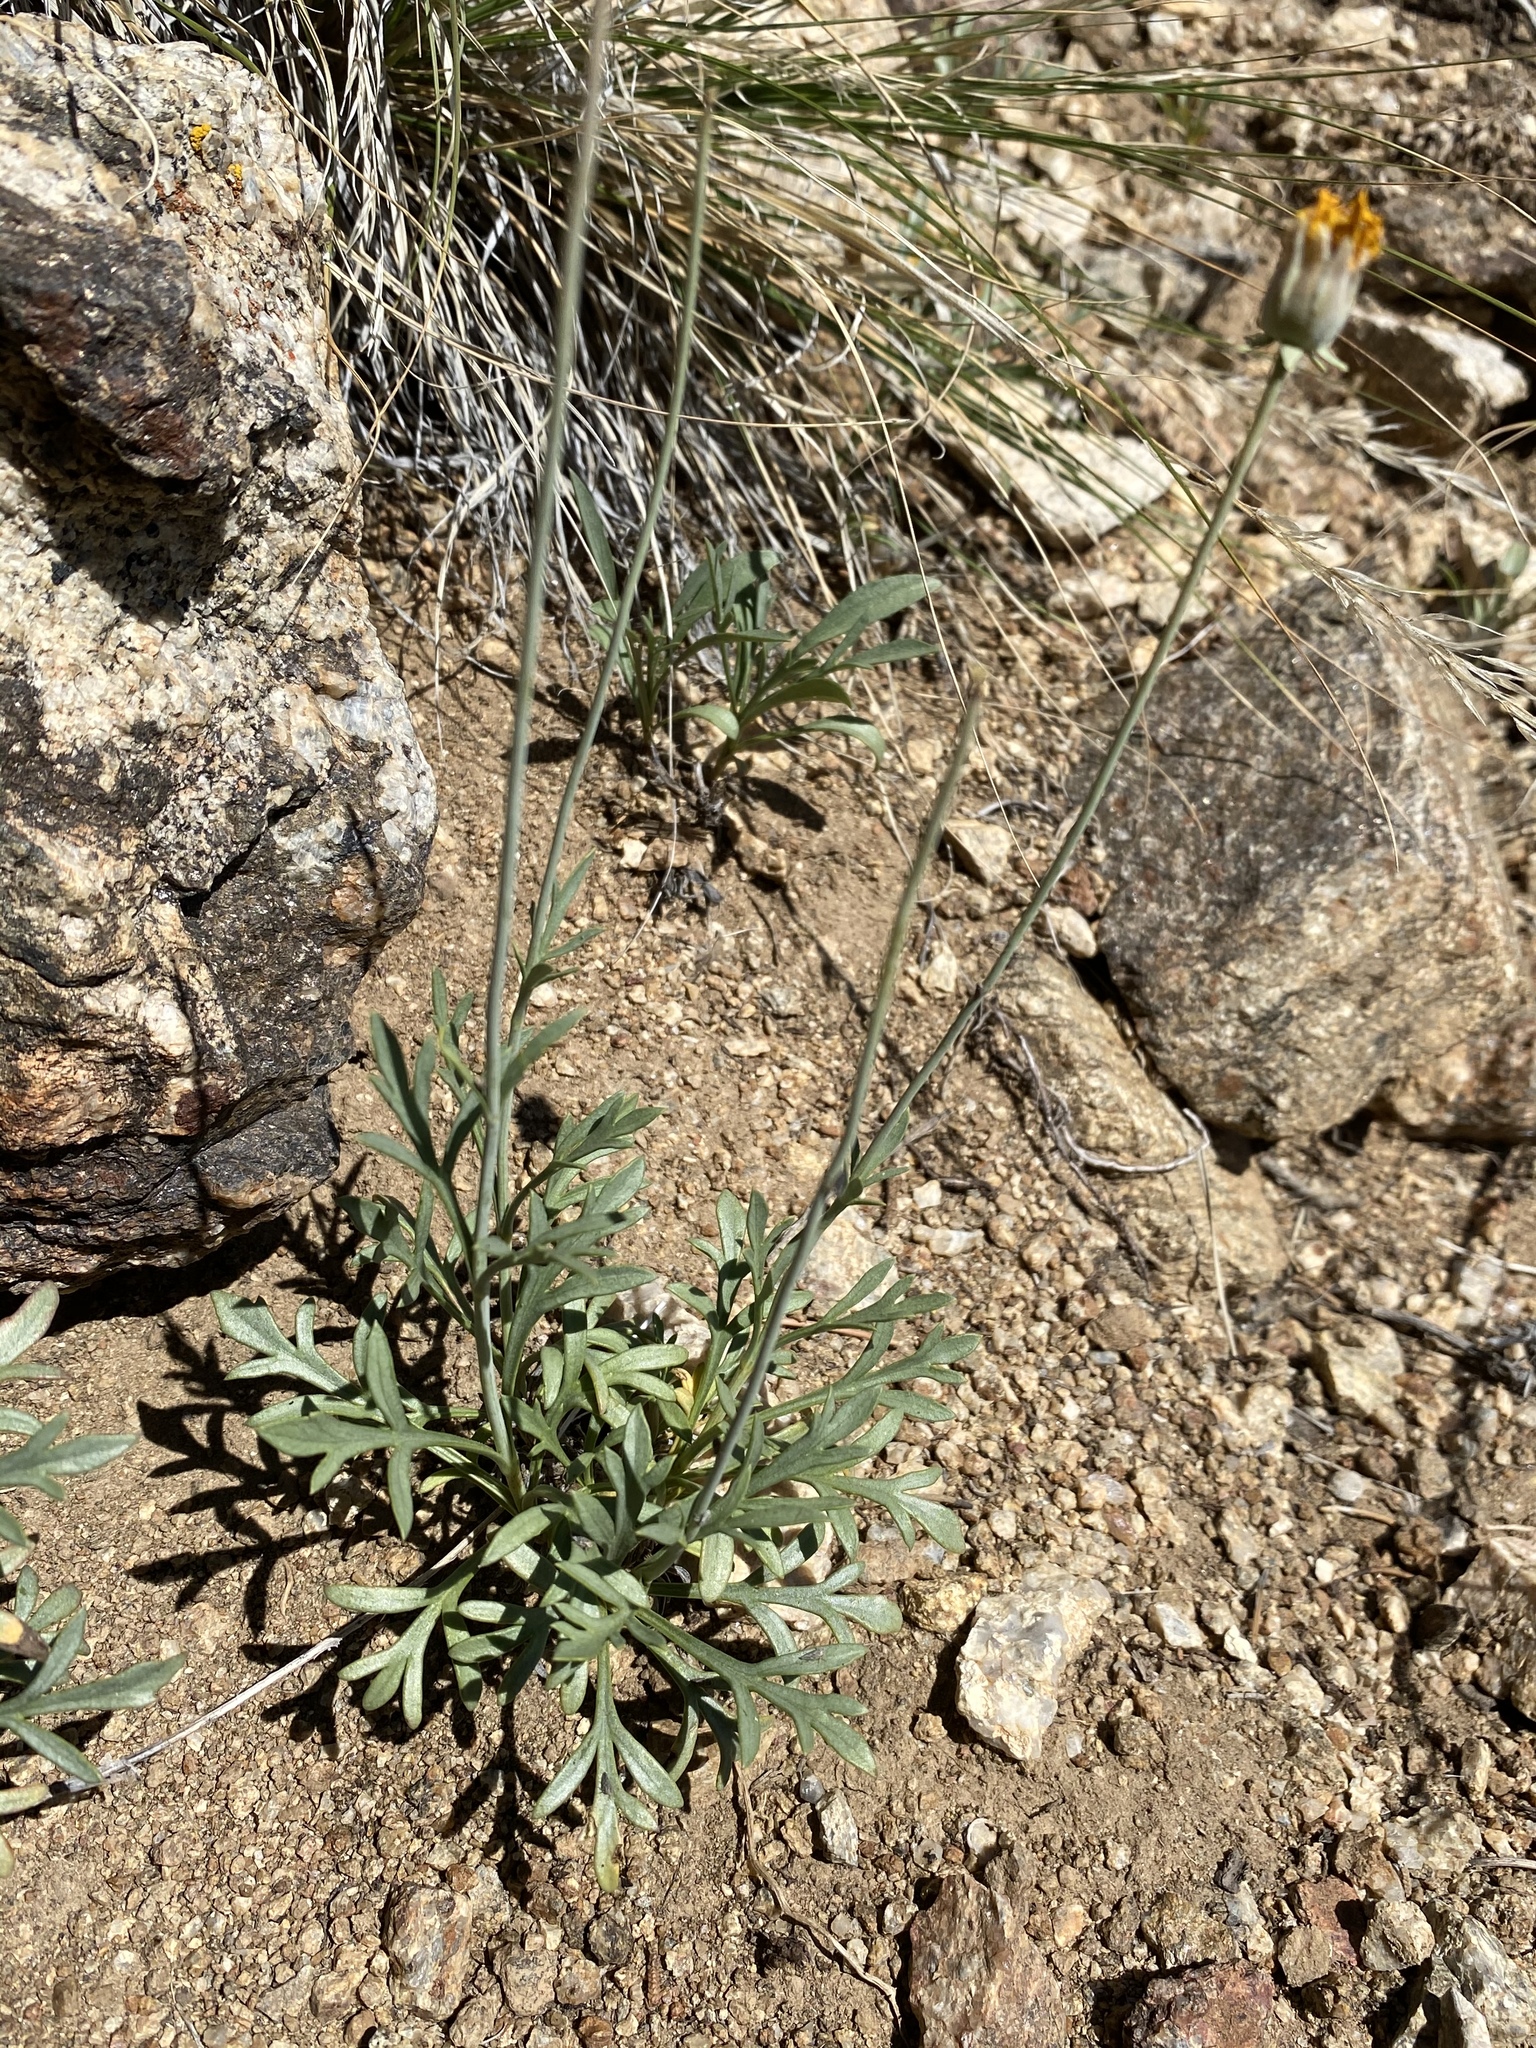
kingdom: Plantae
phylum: Tracheophyta
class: Magnoliopsida
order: Asterales
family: Asteraceae
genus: Thelesperma
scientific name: Thelesperma subnudum
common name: Navajo tea
